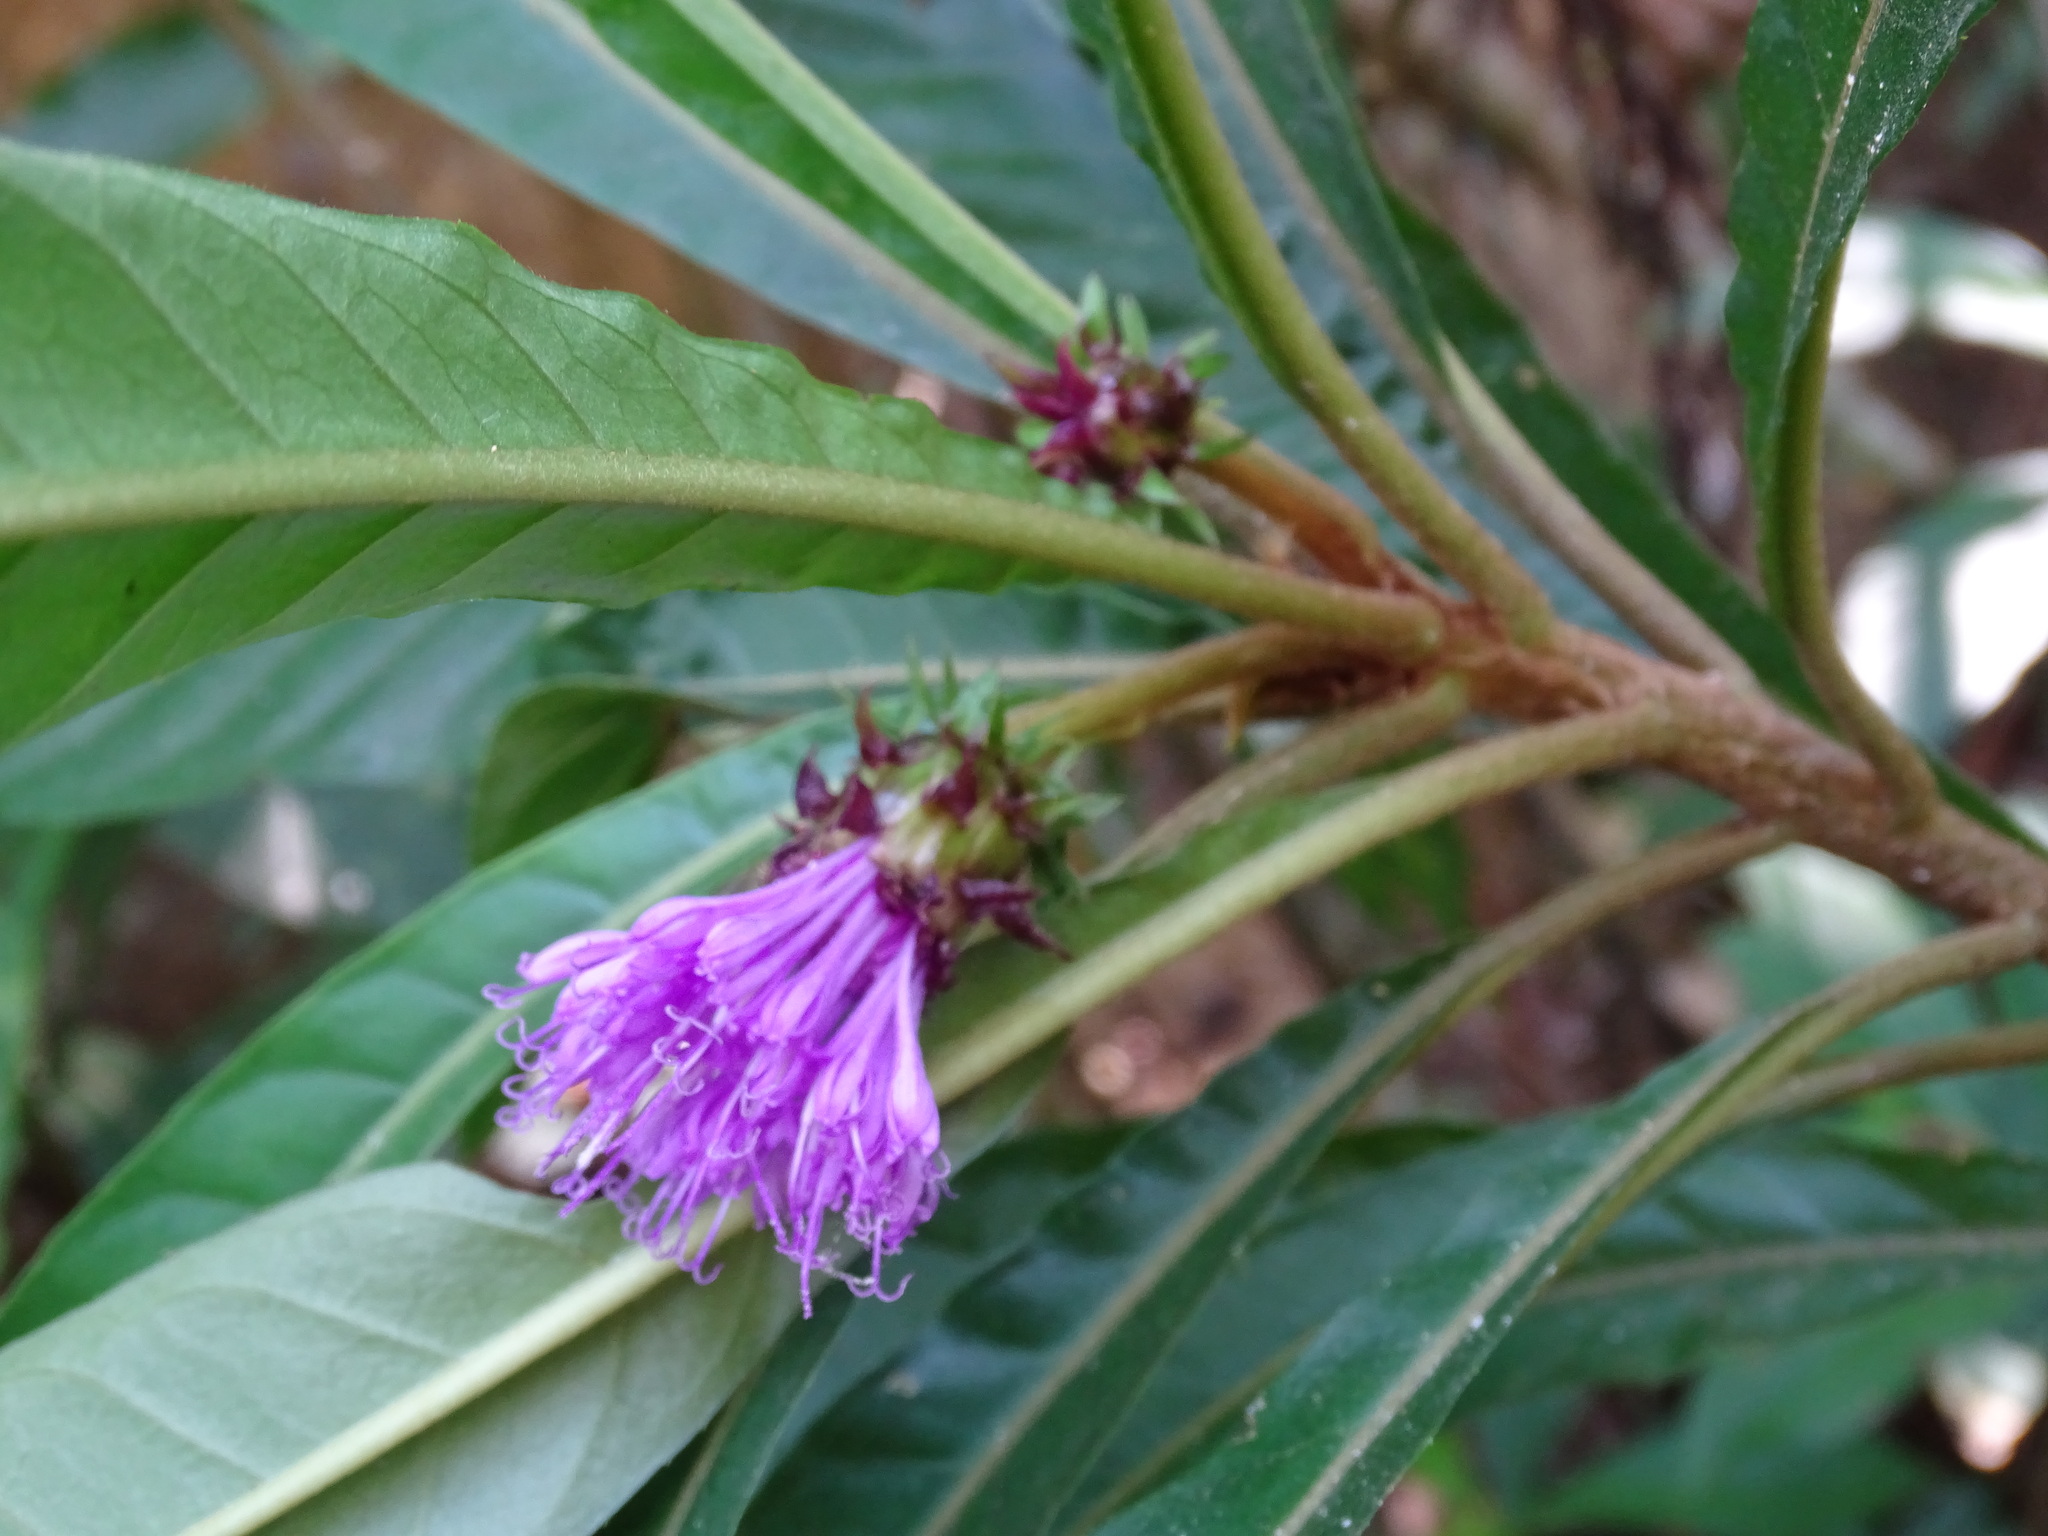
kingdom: Plantae
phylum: Tracheophyta
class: Magnoliopsida
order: Asterales
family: Asteraceae
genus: Lepidonia
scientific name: Lepidonia salvinae
